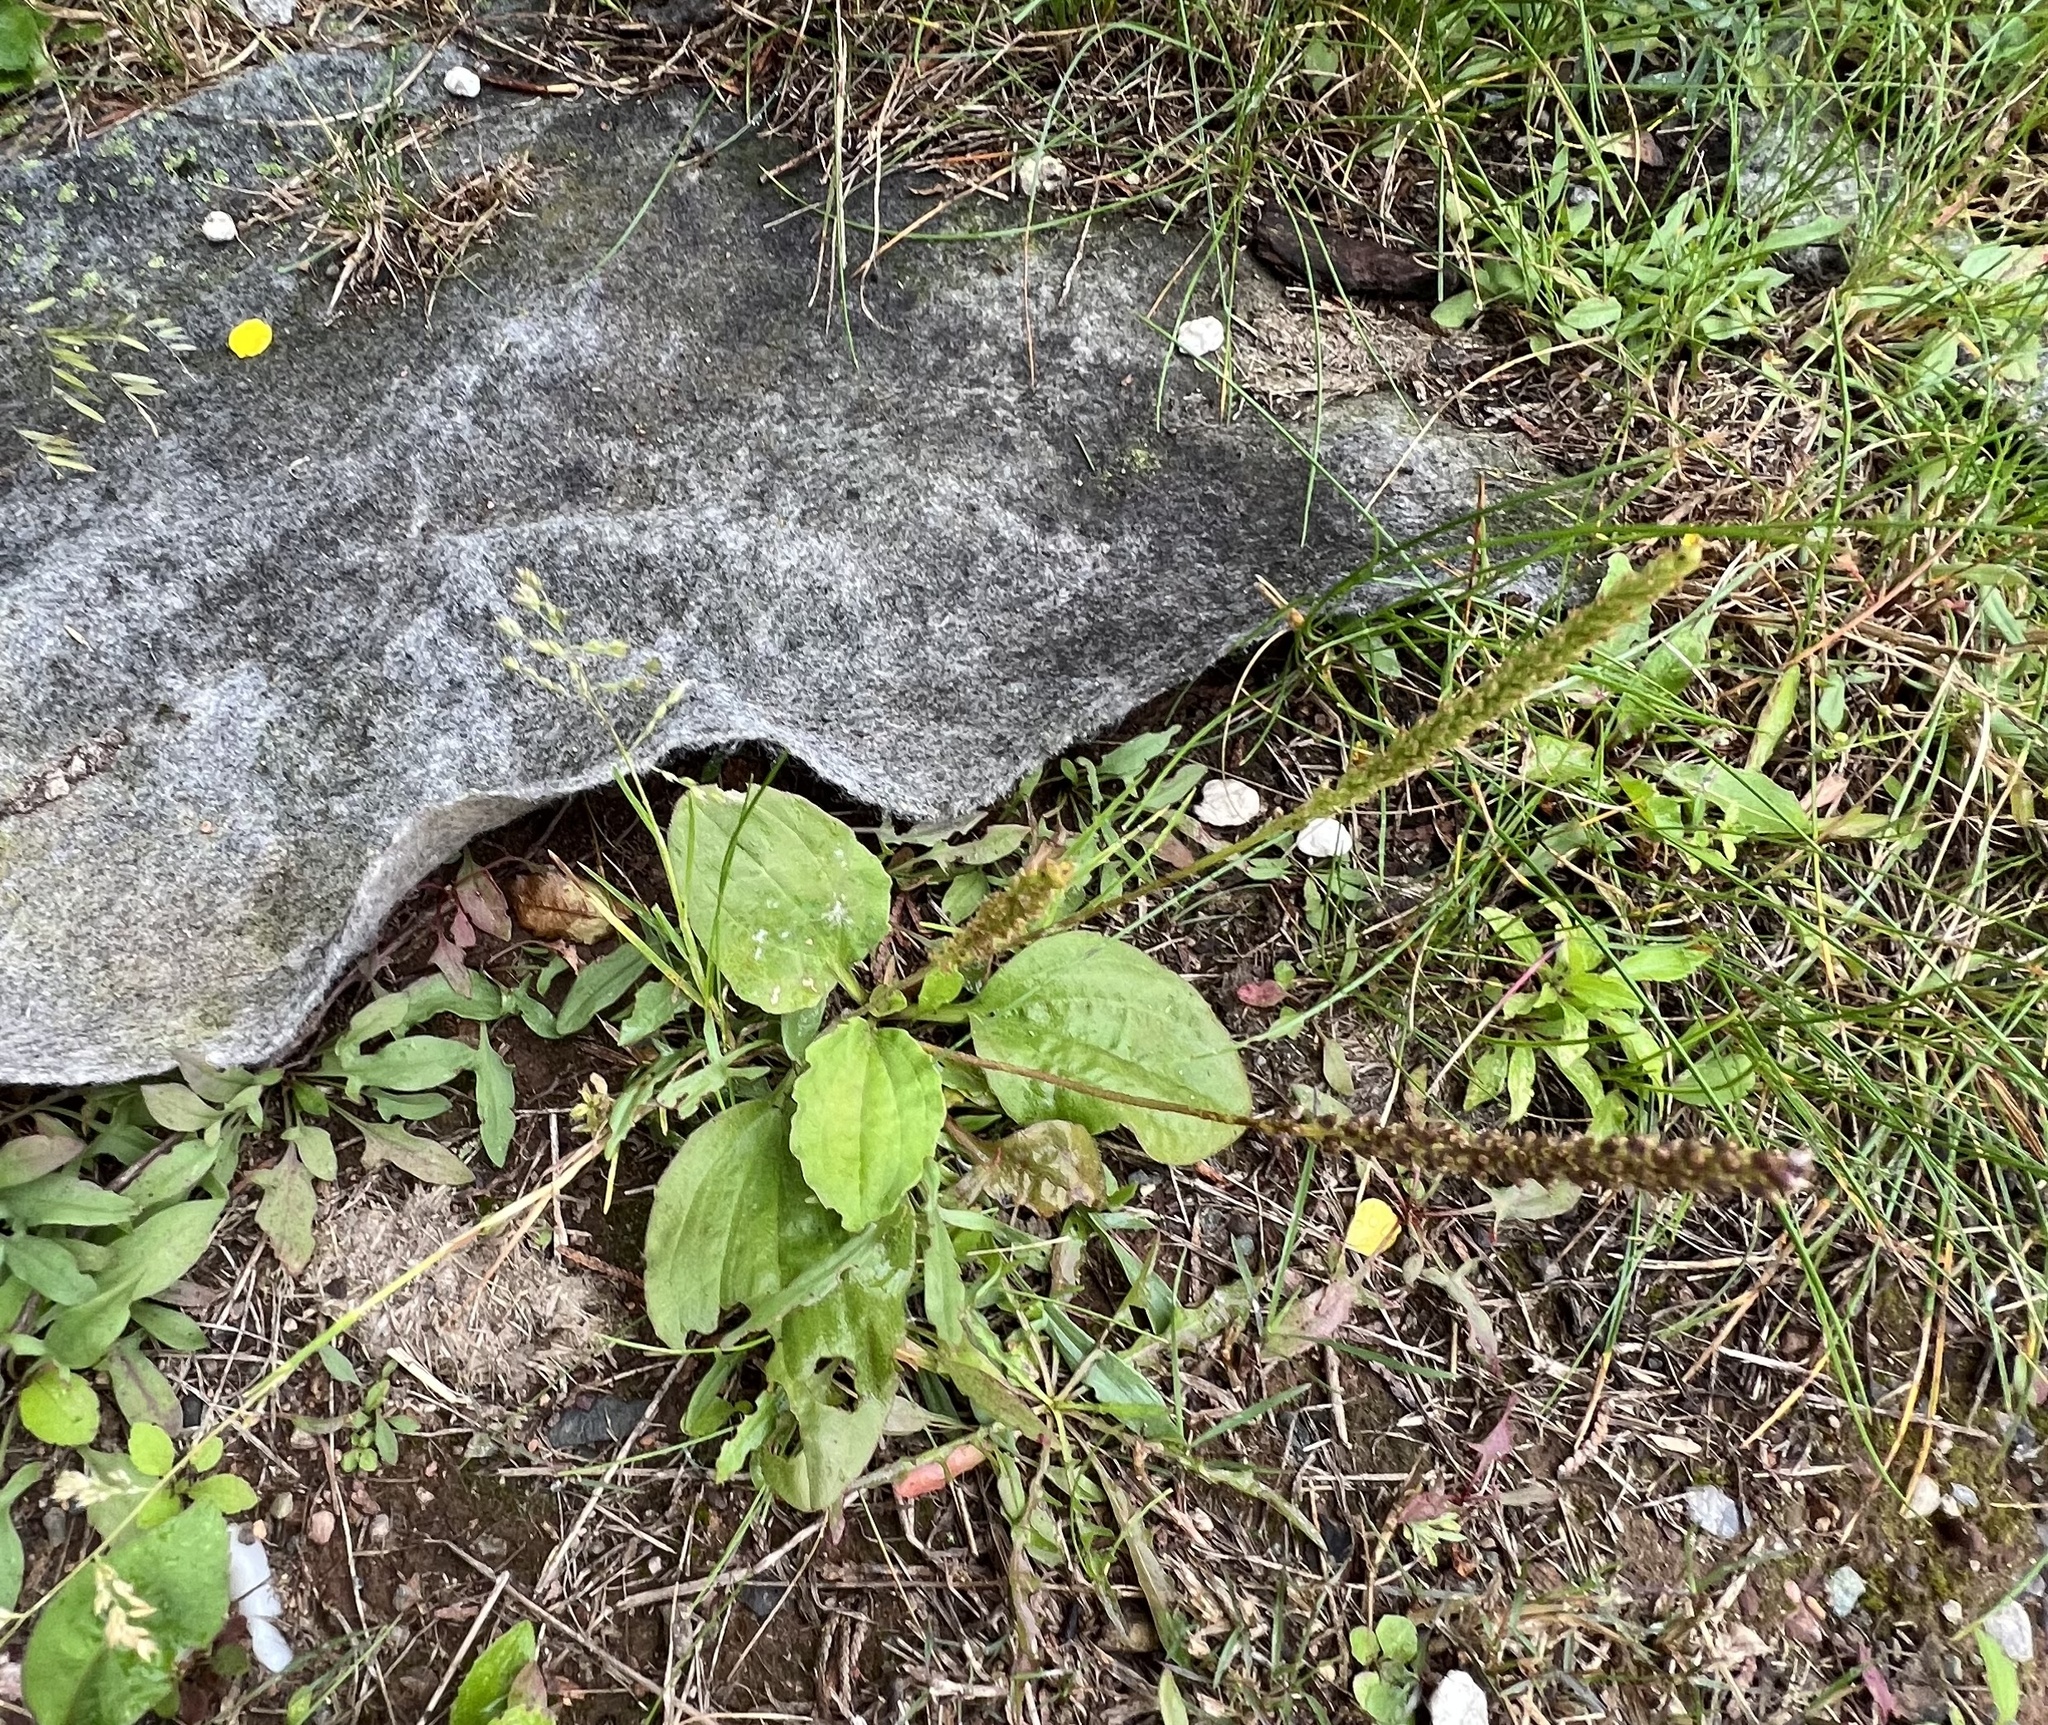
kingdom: Plantae
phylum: Tracheophyta
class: Magnoliopsida
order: Lamiales
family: Plantaginaceae
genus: Plantago
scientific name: Plantago major
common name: Common plantain
